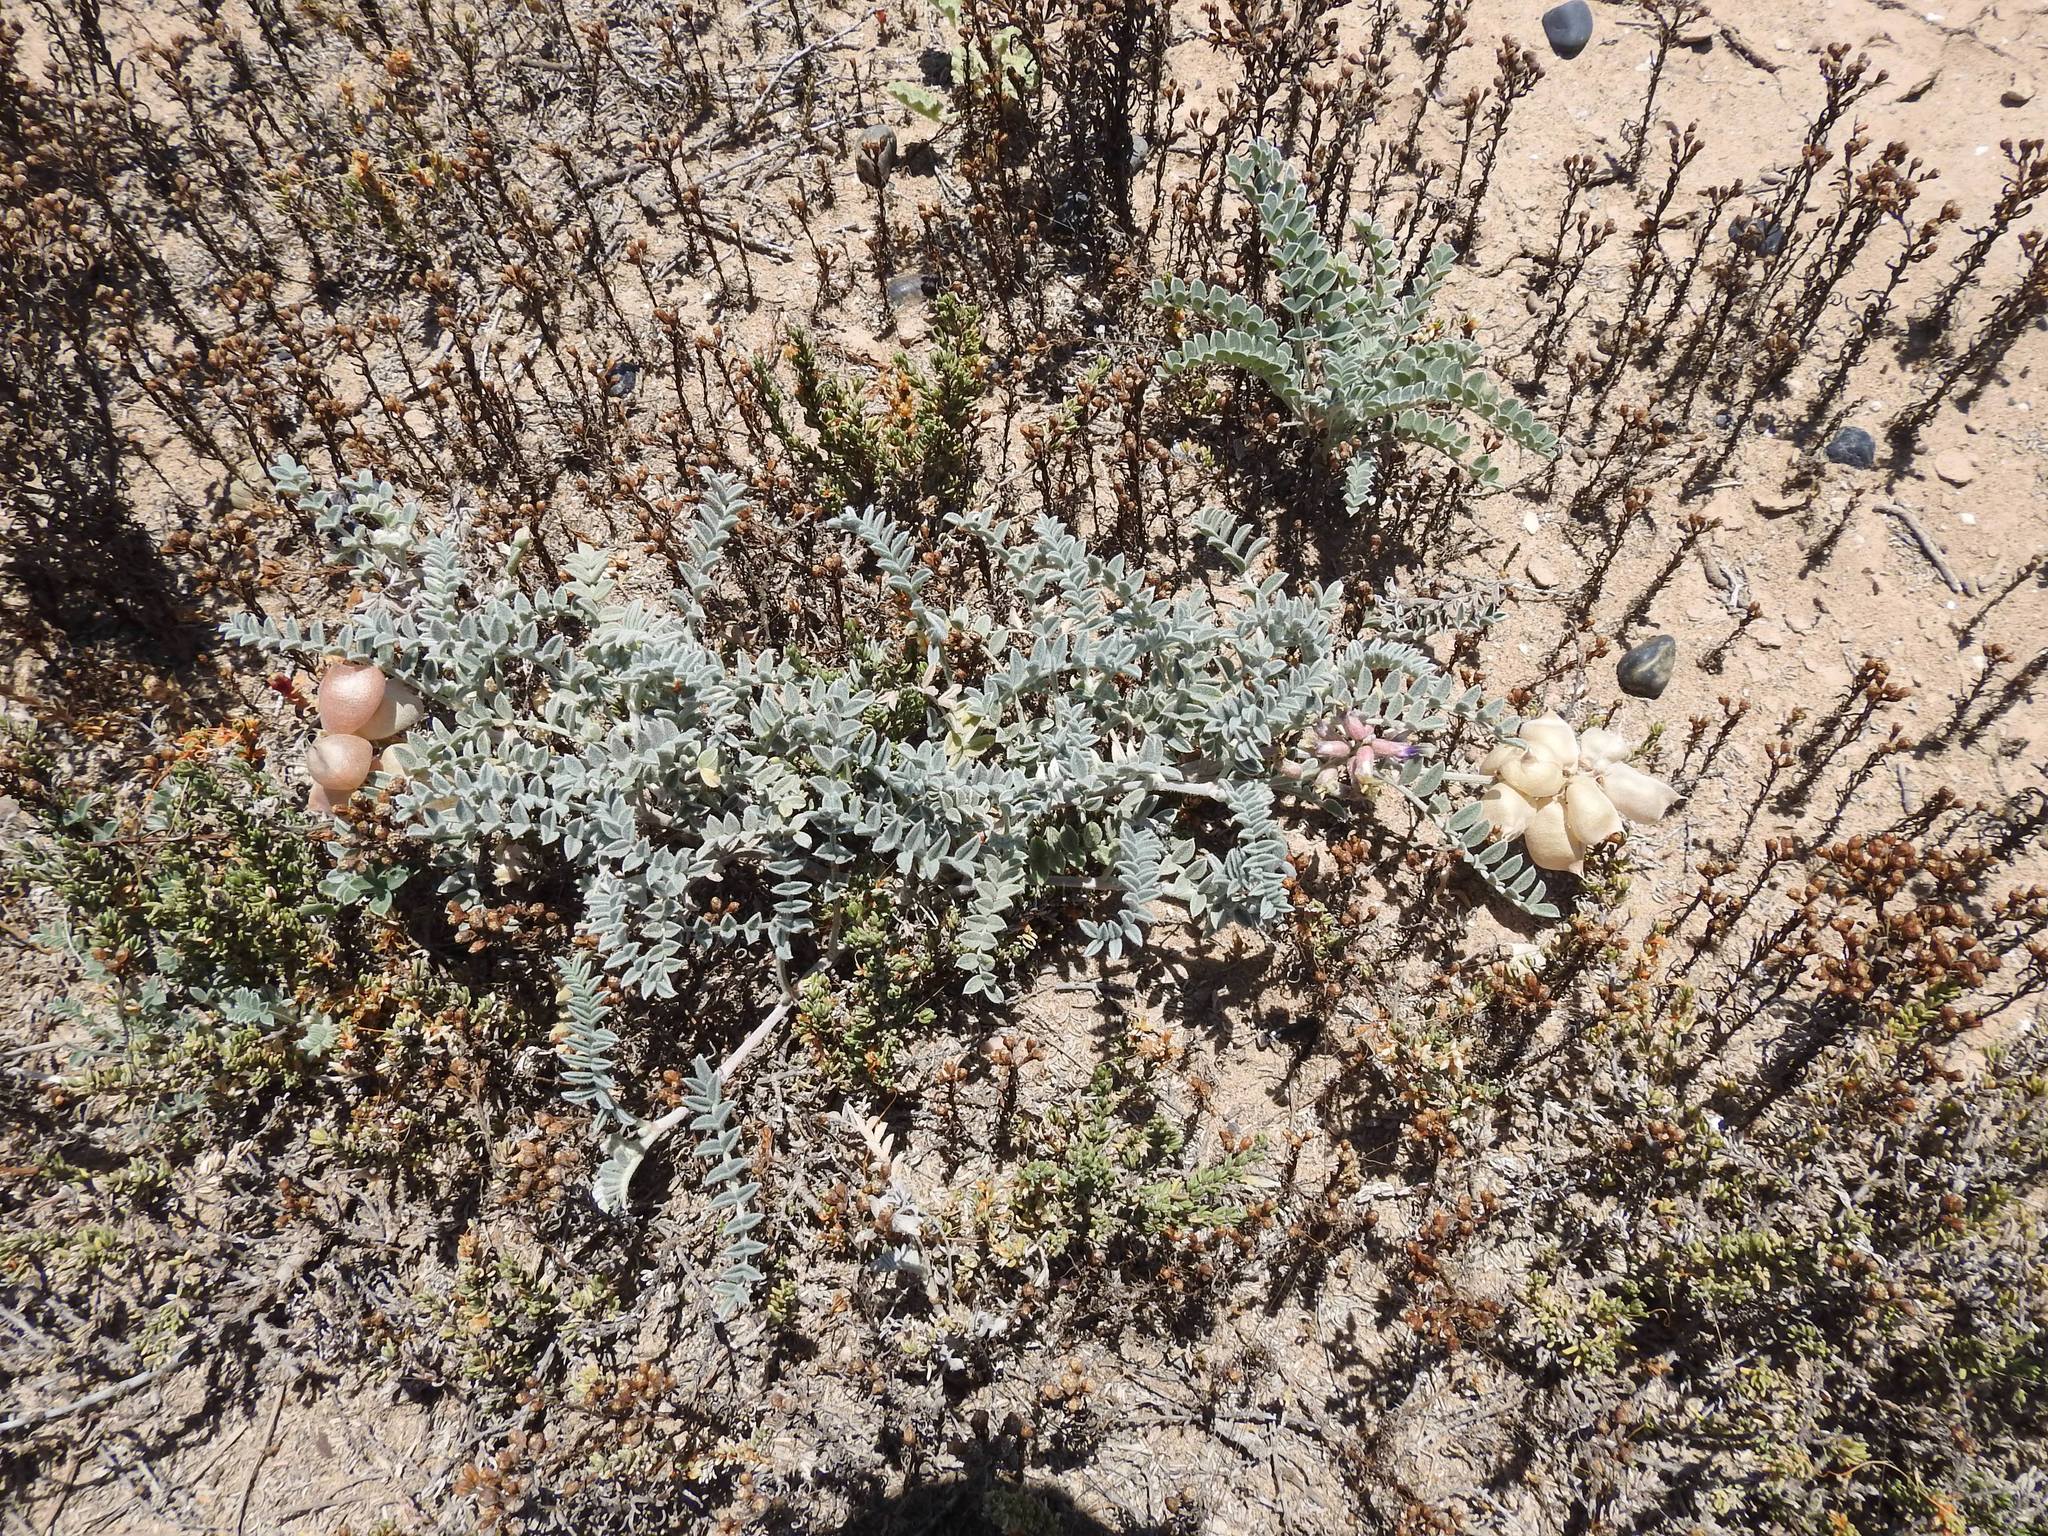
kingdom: Plantae
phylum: Tracheophyta
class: Magnoliopsida
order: Fabales
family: Fabaceae
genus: Astragalus
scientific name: Astragalus harbisonii
